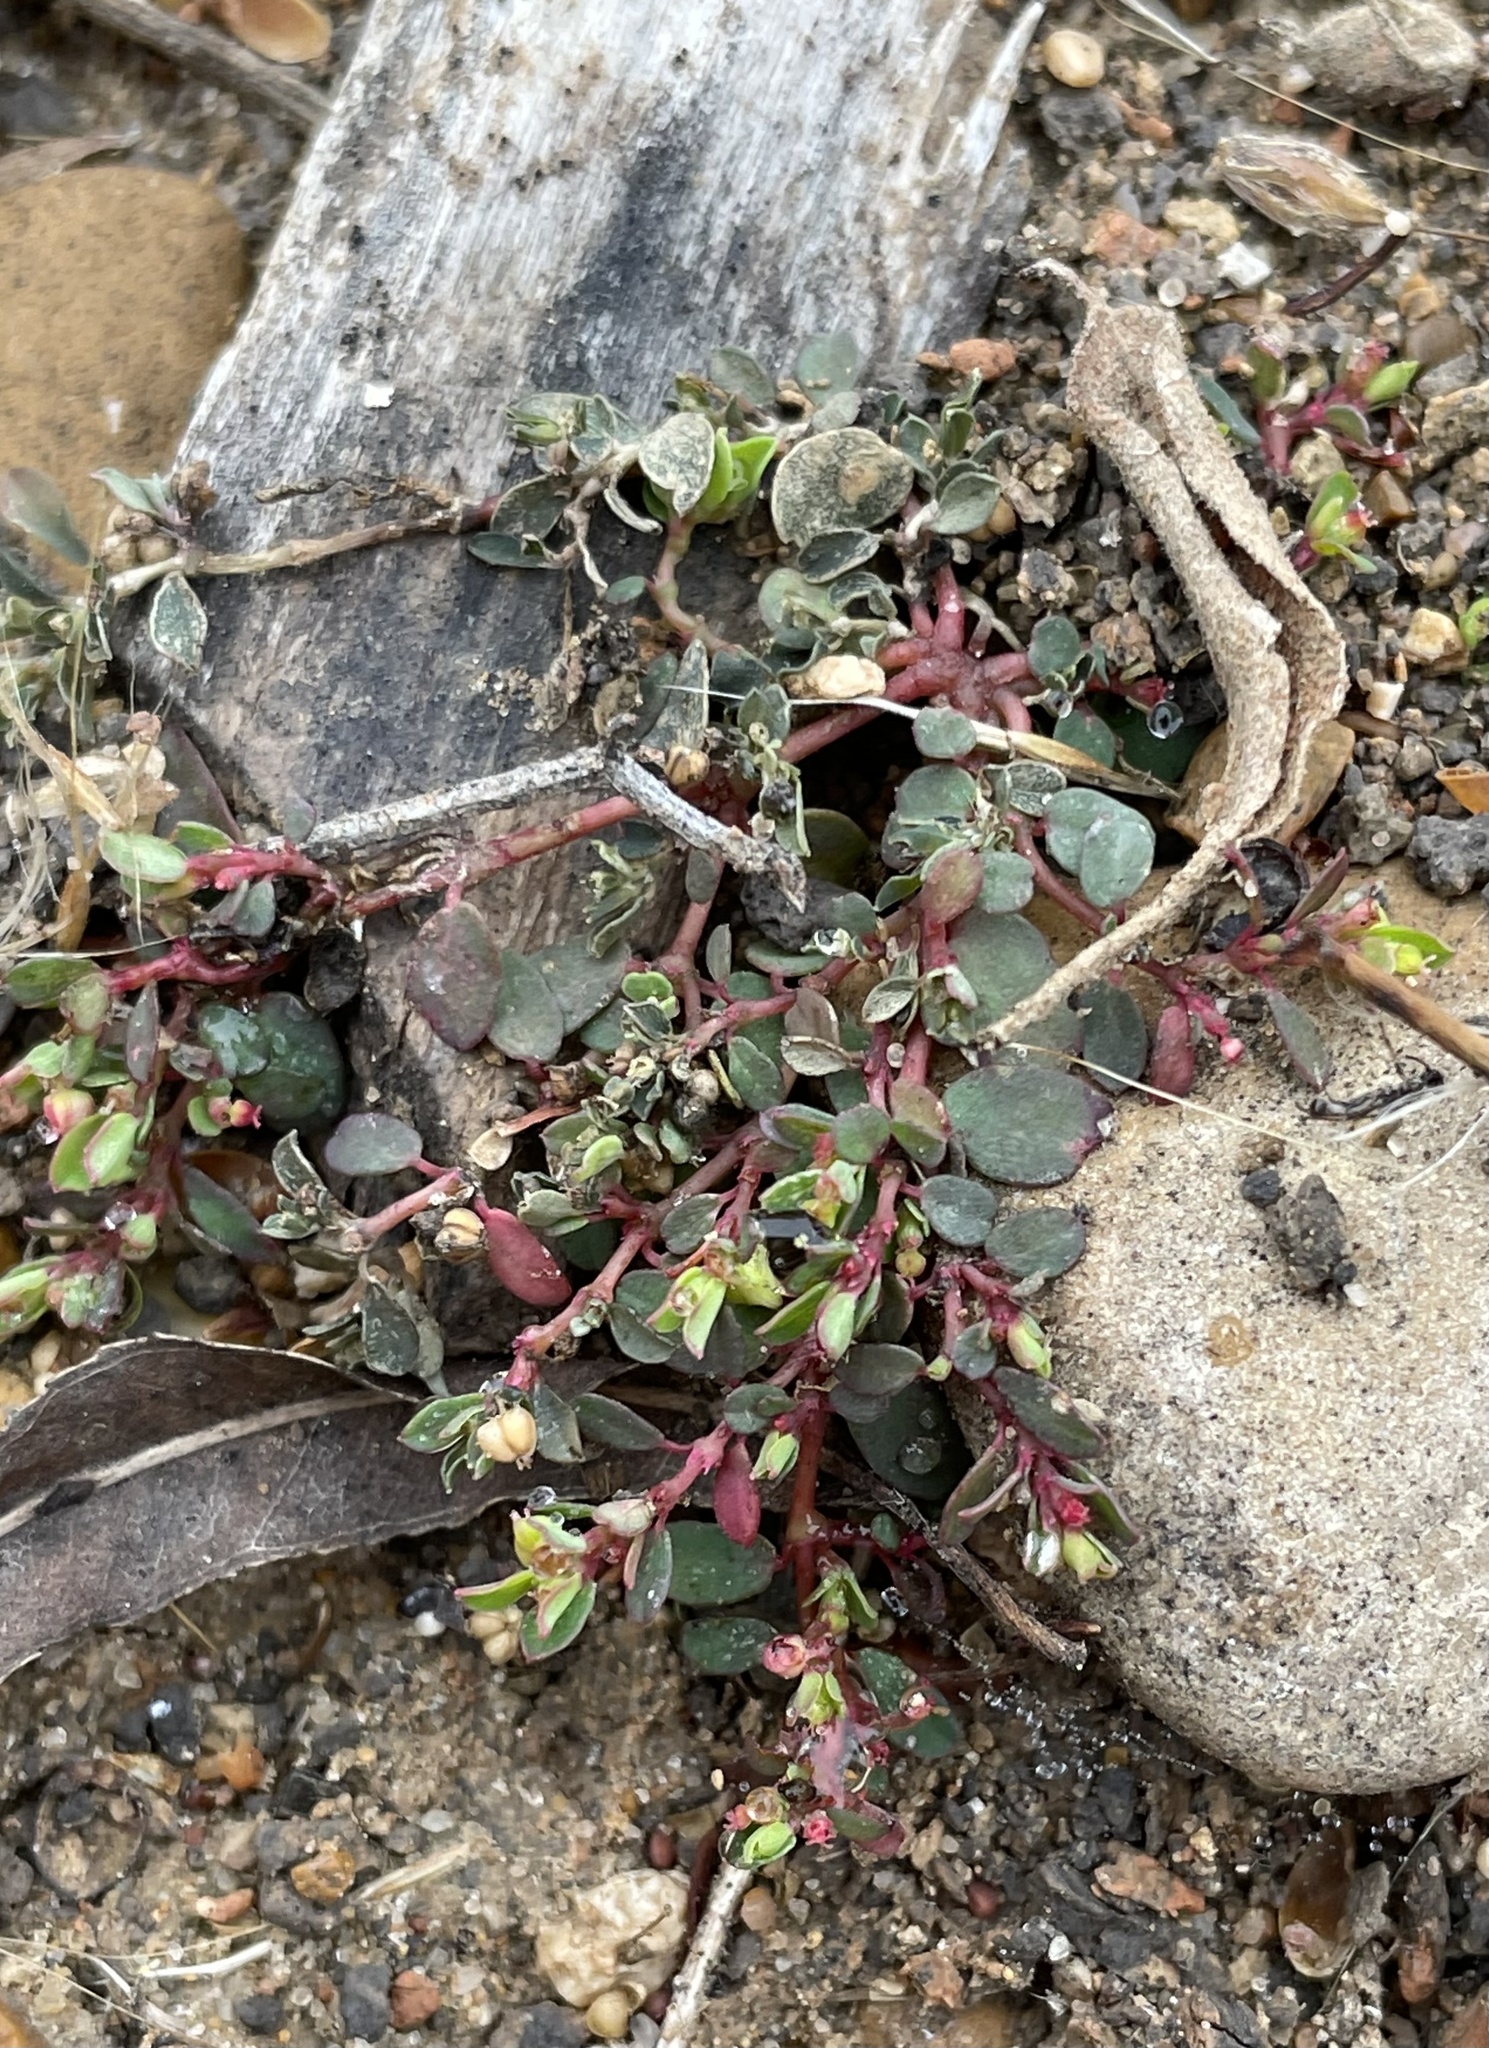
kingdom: Plantae
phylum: Tracheophyta
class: Magnoliopsida
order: Malpighiales
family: Euphorbiaceae
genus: Euphorbia
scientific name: Euphorbia serpens
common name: Matted sandmat
